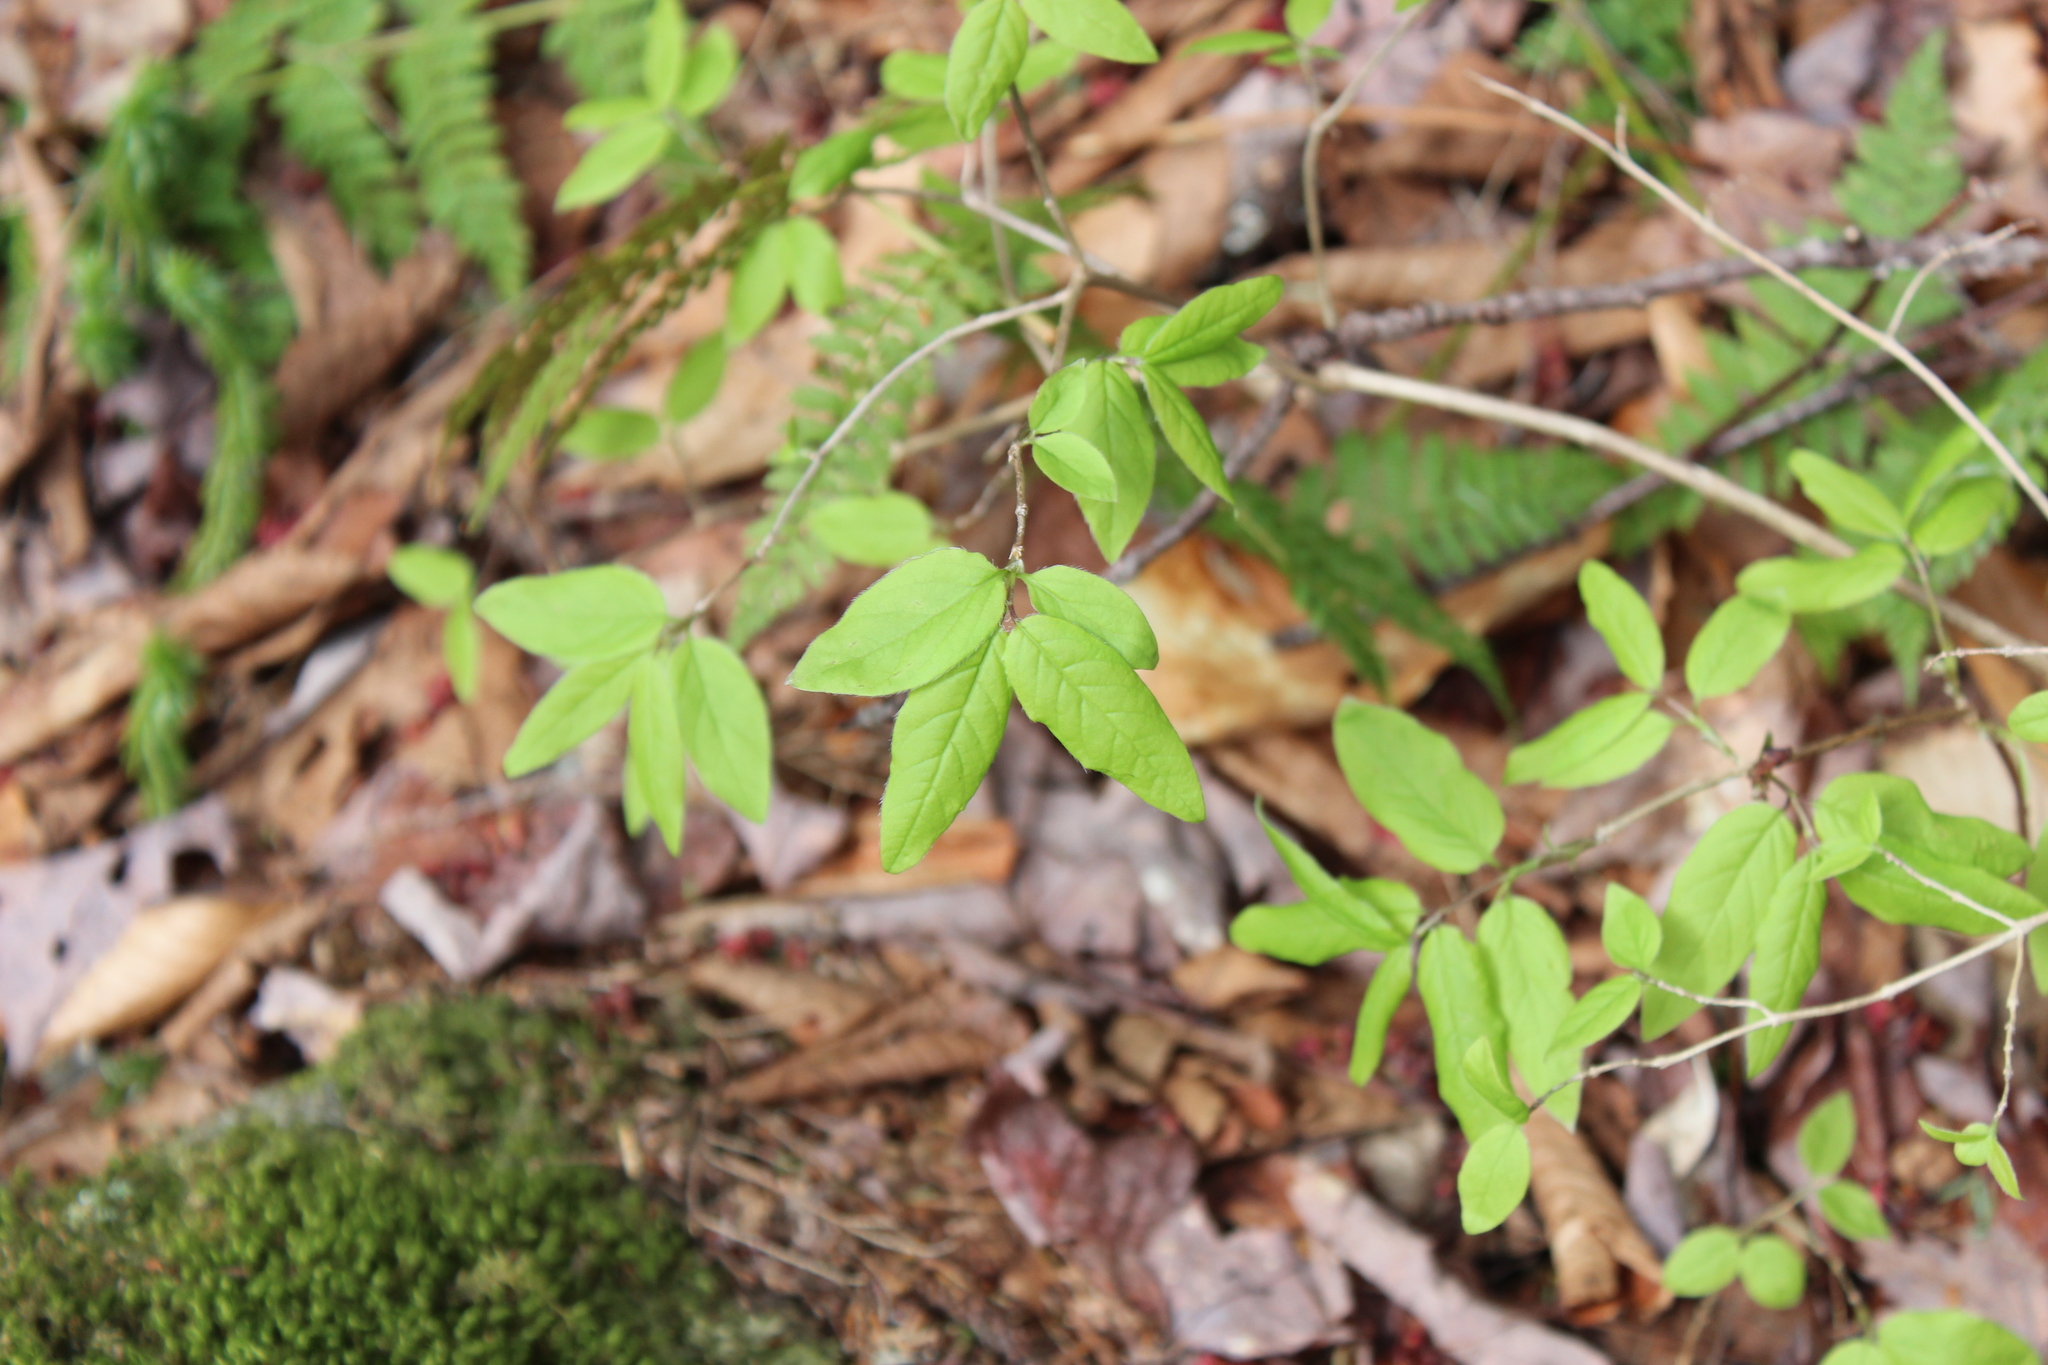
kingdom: Plantae
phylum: Tracheophyta
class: Magnoliopsida
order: Dipsacales
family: Caprifoliaceae
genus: Lonicera
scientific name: Lonicera canadensis
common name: American fly-honeysuckle
